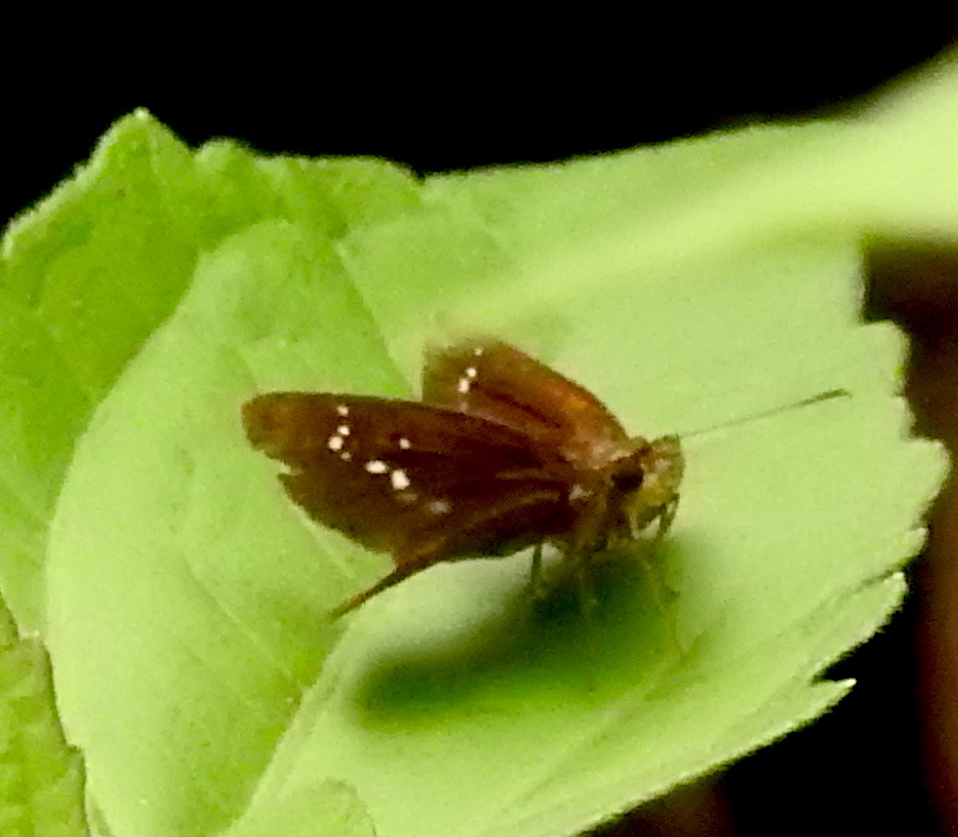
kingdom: Animalia
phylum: Arthropoda
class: Insecta
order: Lepidoptera
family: Hesperiidae
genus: Parnara
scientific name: Parnara naso
